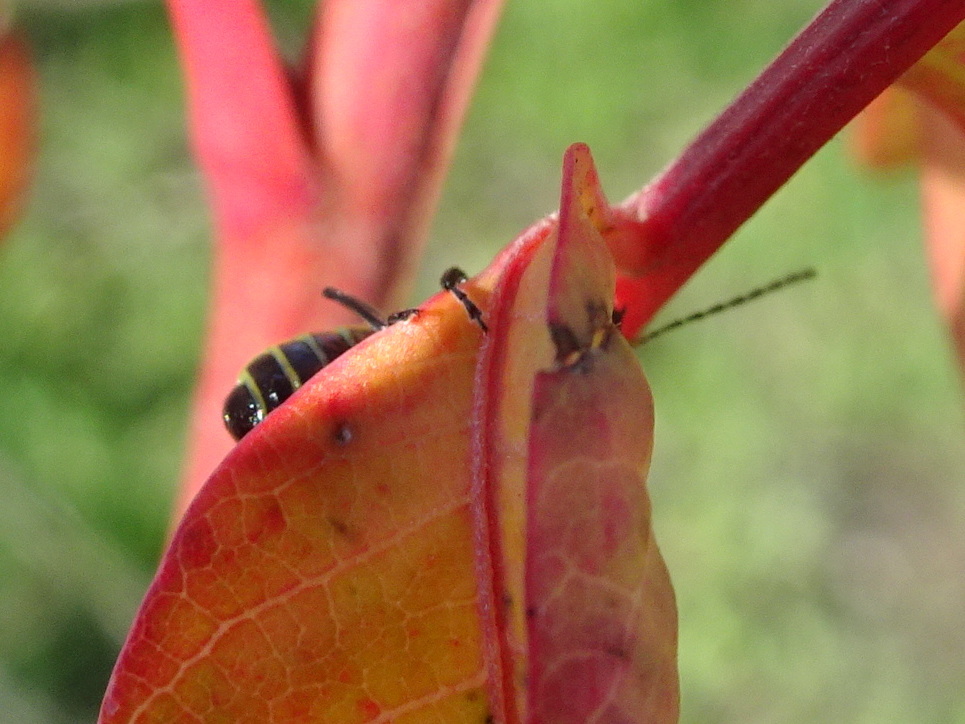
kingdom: Animalia
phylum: Arthropoda
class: Insecta
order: Coleoptera
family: Chrysomelidae
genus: Diabrotica
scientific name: Diabrotica undecimpunctata
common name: Spotted cucumber beetle
